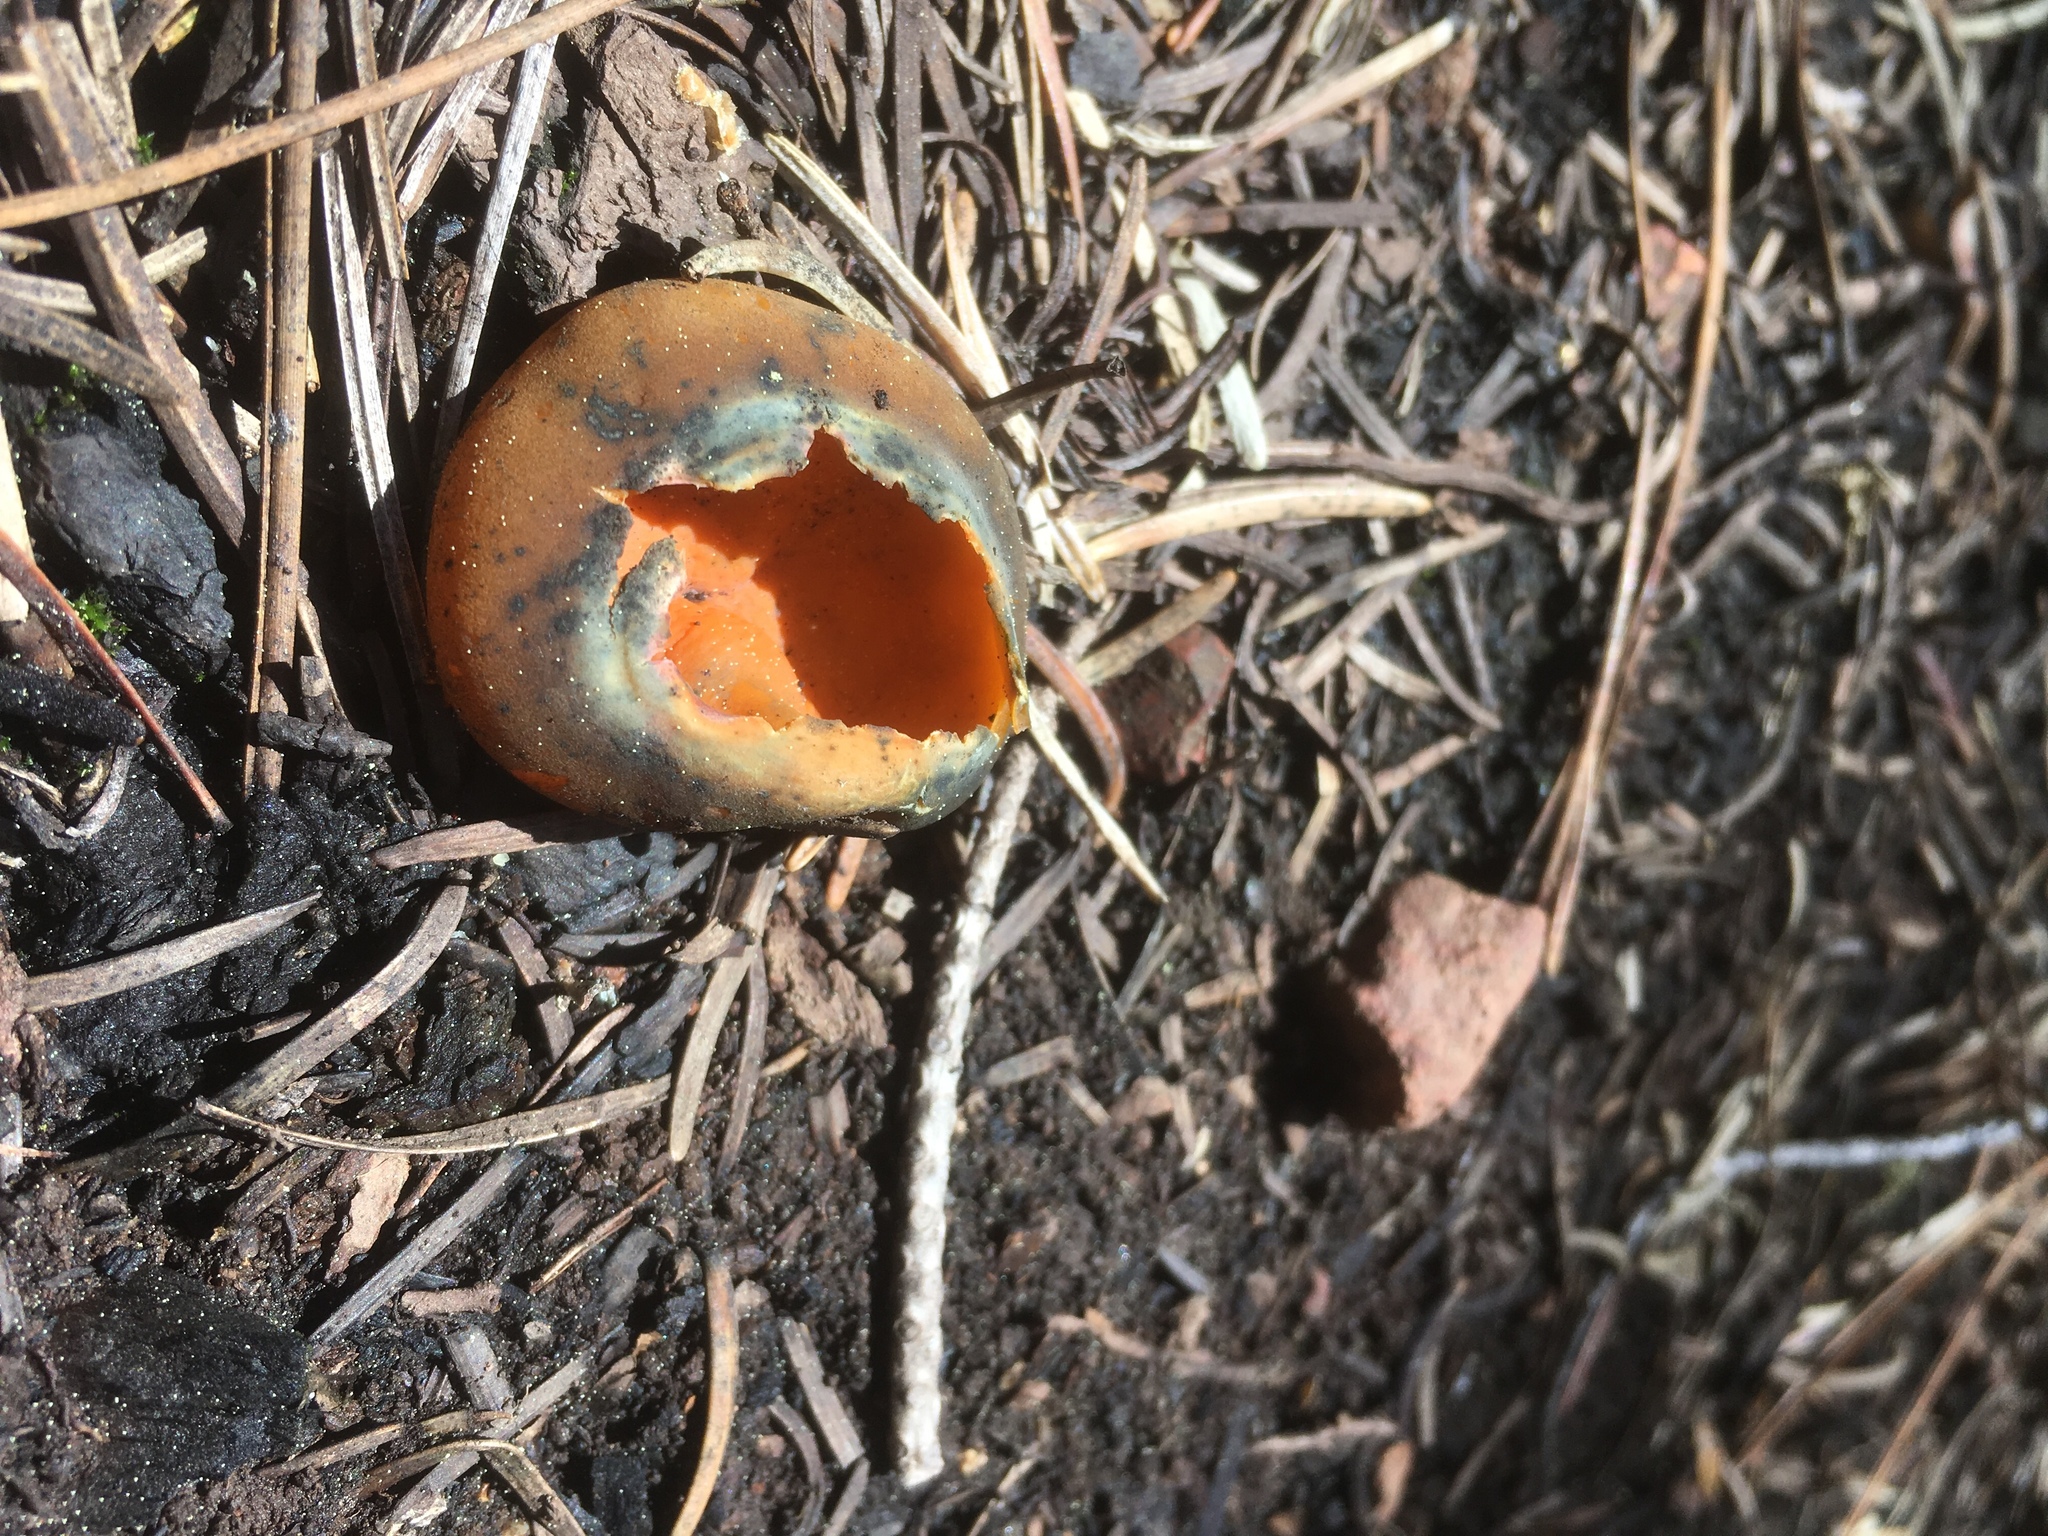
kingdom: Fungi
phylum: Ascomycota
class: Pezizomycetes
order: Pezizales
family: Caloscyphaceae
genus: Caloscypha
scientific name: Caloscypha fulgens
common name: Golden cup
